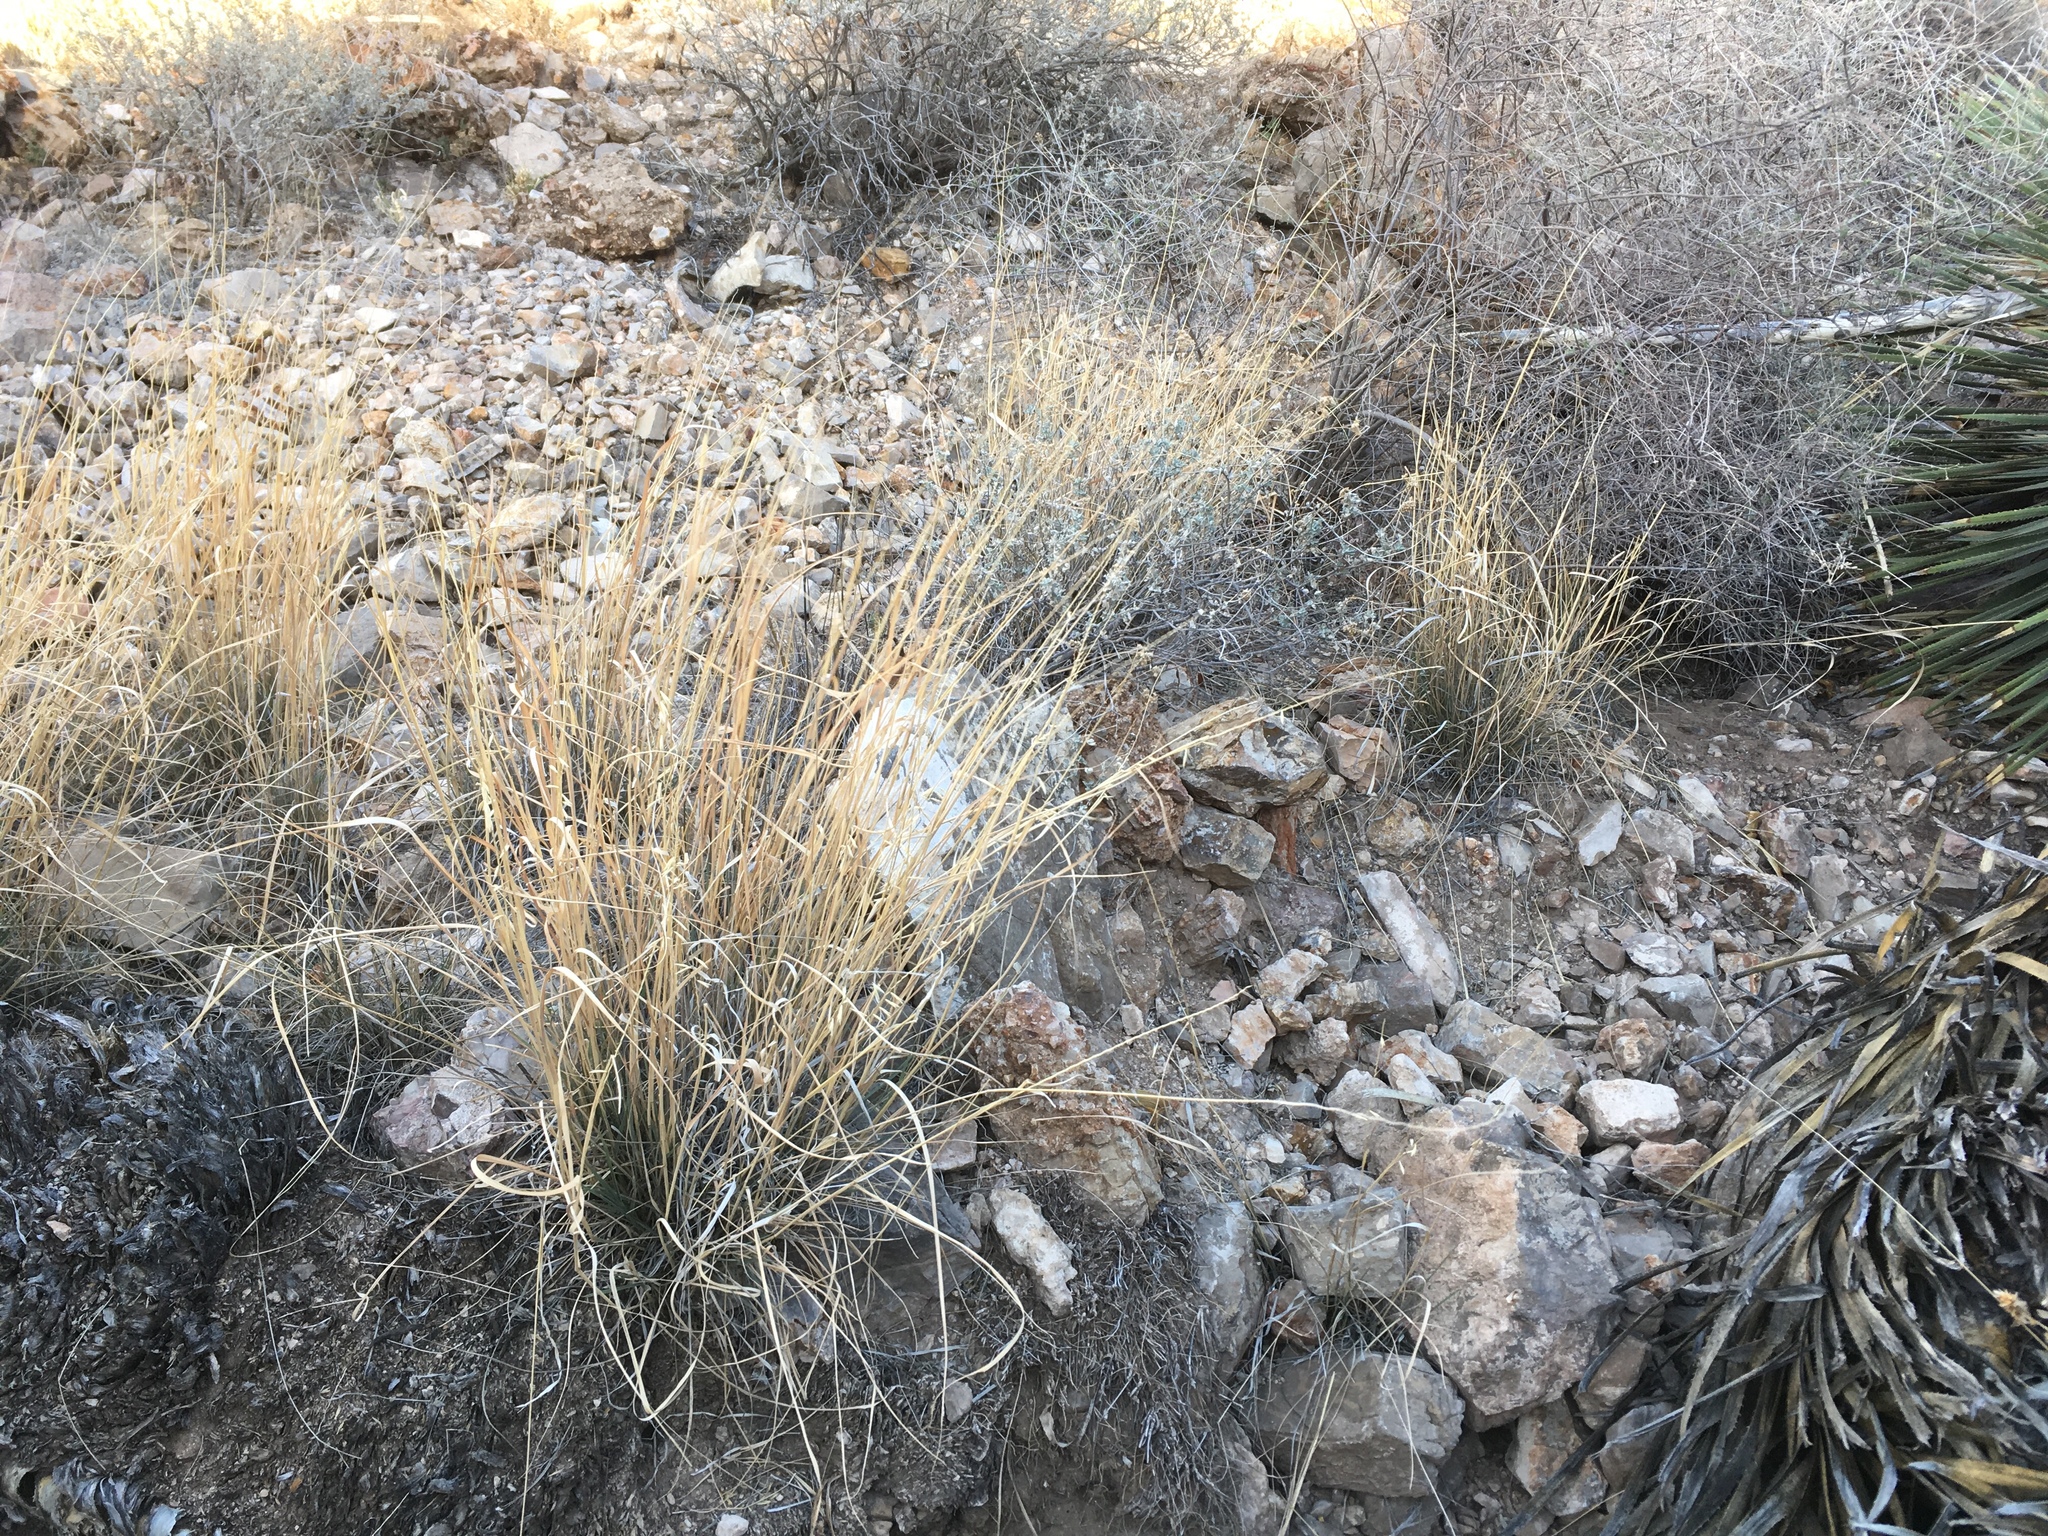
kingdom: Plantae
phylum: Tracheophyta
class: Liliopsida
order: Poales
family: Poaceae
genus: Bouteloua
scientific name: Bouteloua curtipendula
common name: Side-oats grama
